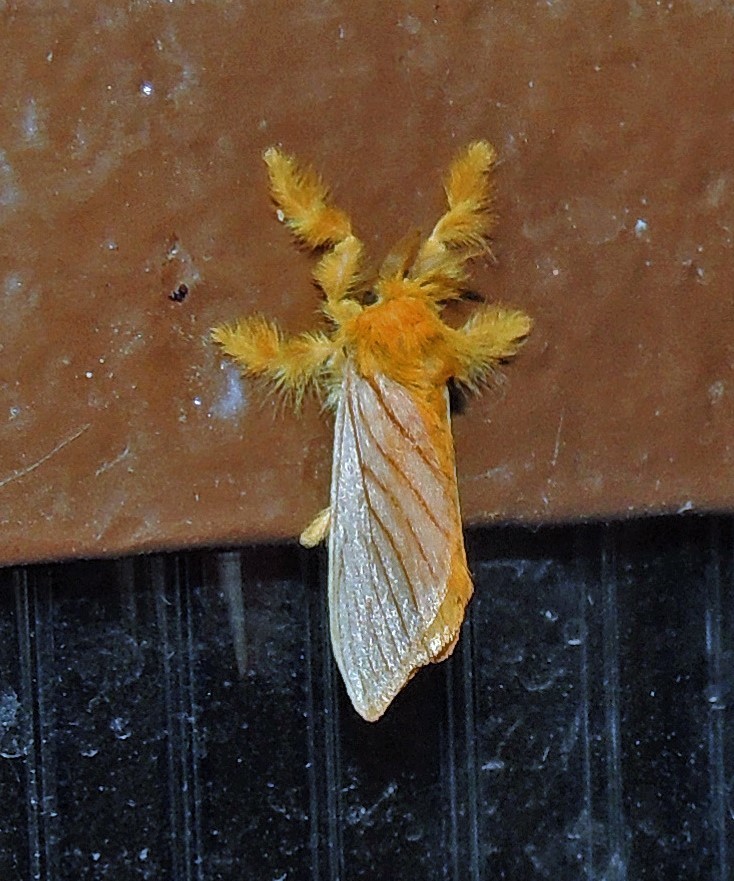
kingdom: Animalia
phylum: Arthropoda
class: Insecta
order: Lepidoptera
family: Dalceridae
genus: Acraga
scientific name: Acraga moorei
